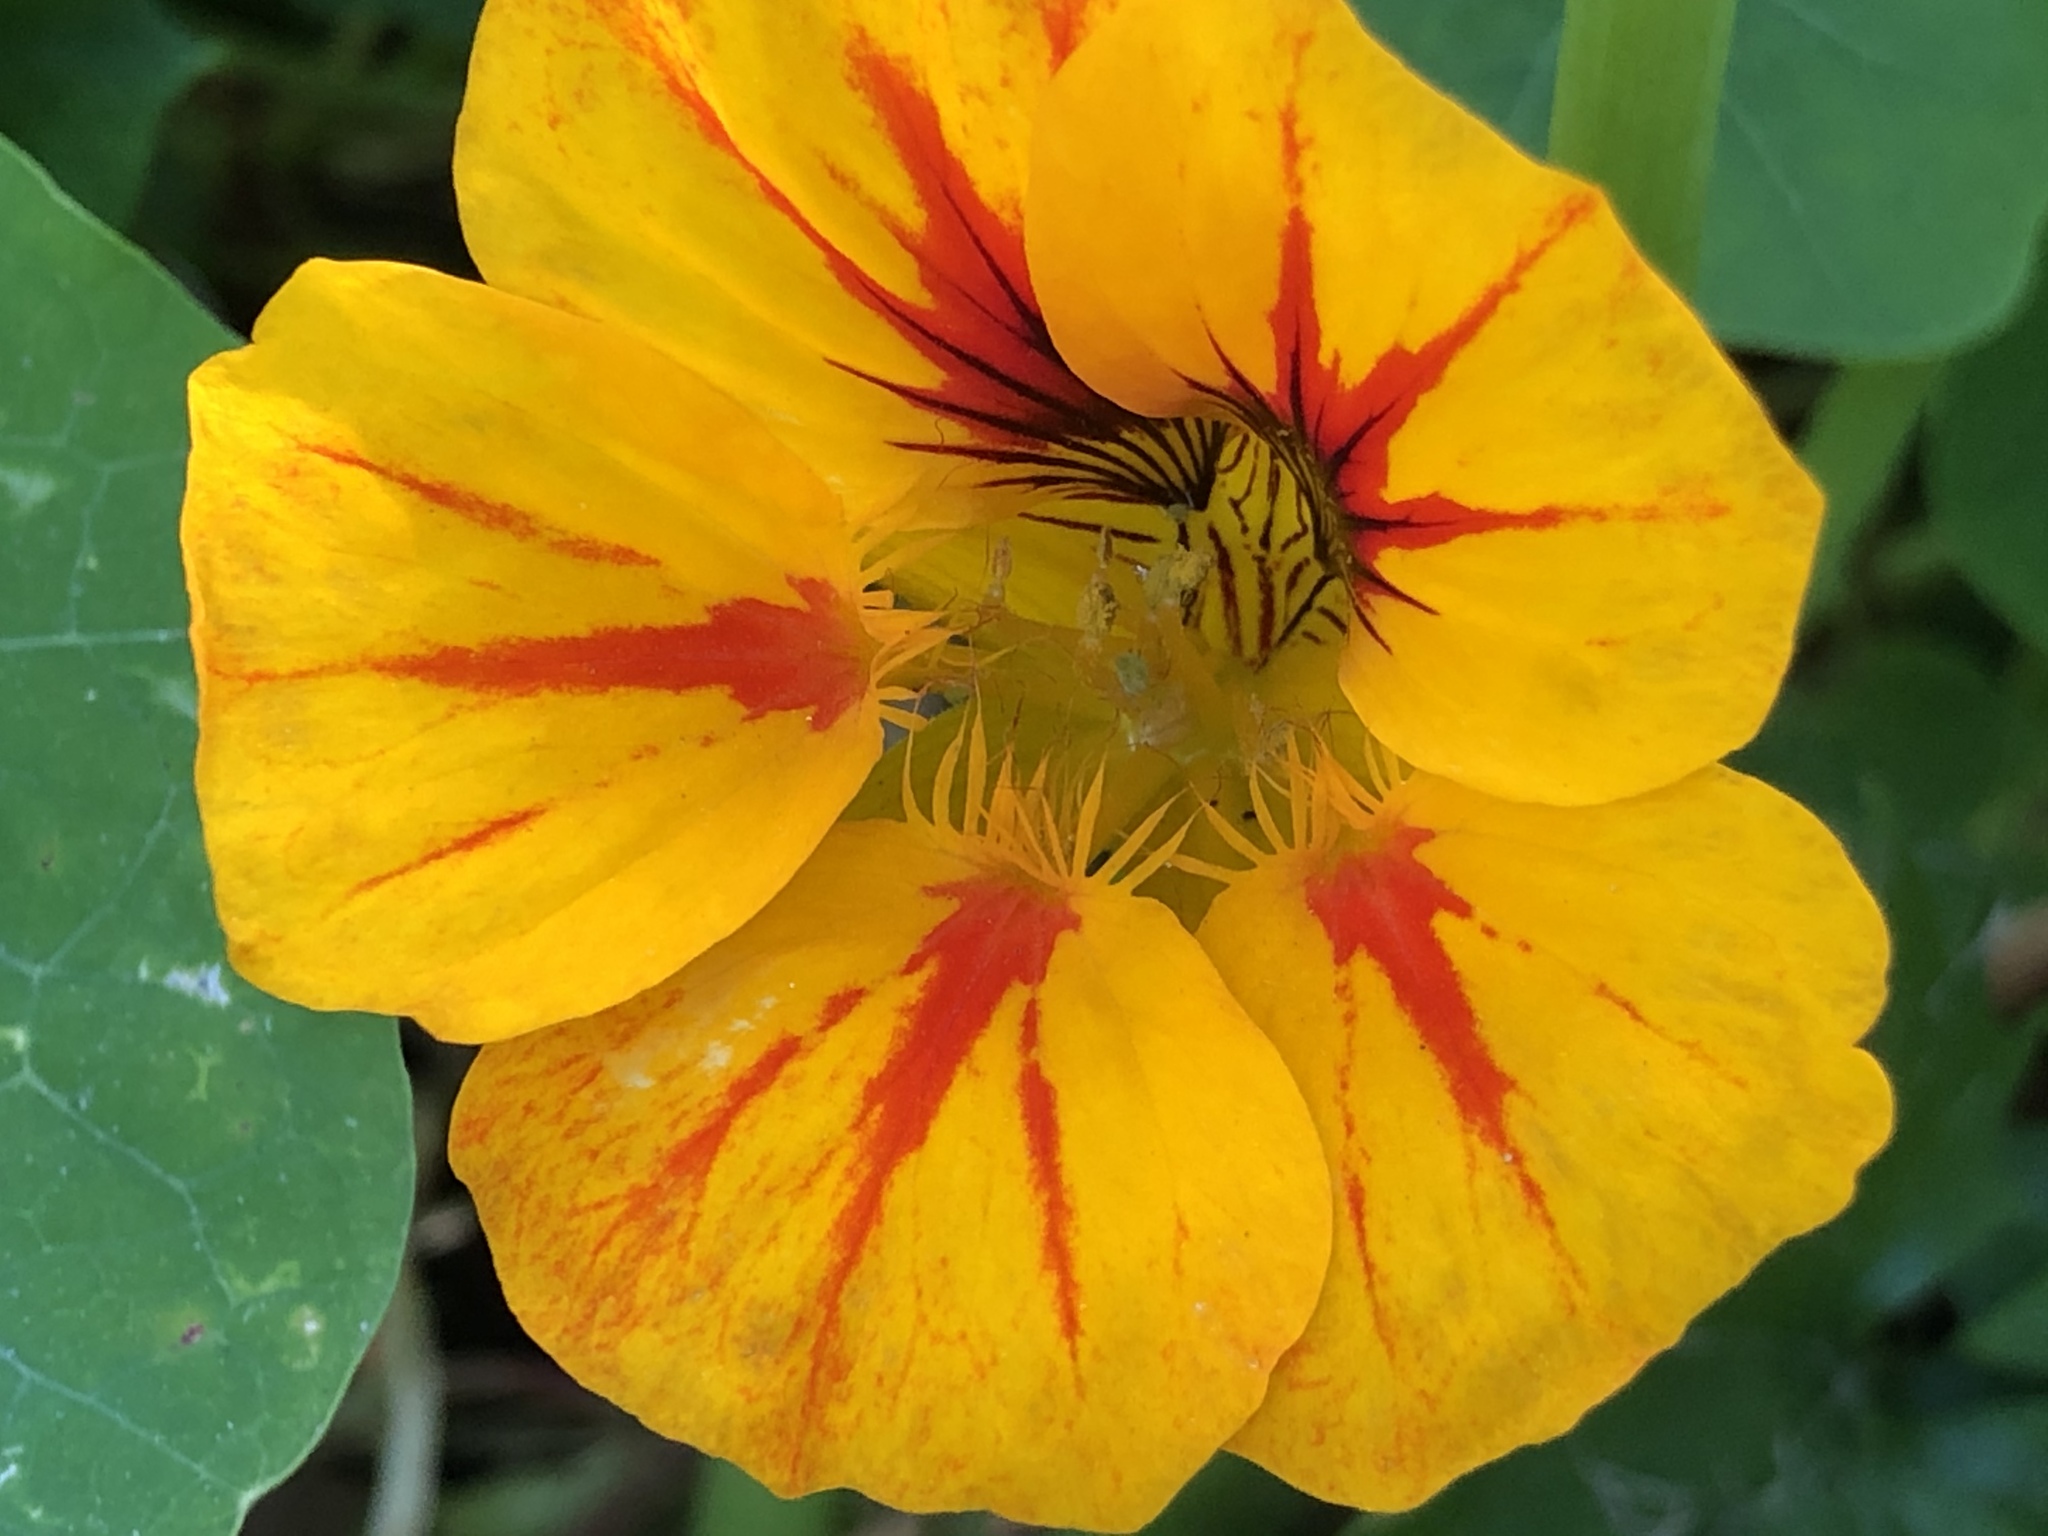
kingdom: Plantae
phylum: Tracheophyta
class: Magnoliopsida
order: Brassicales
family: Tropaeolaceae
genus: Tropaeolum
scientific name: Tropaeolum majus
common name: Nasturtium
